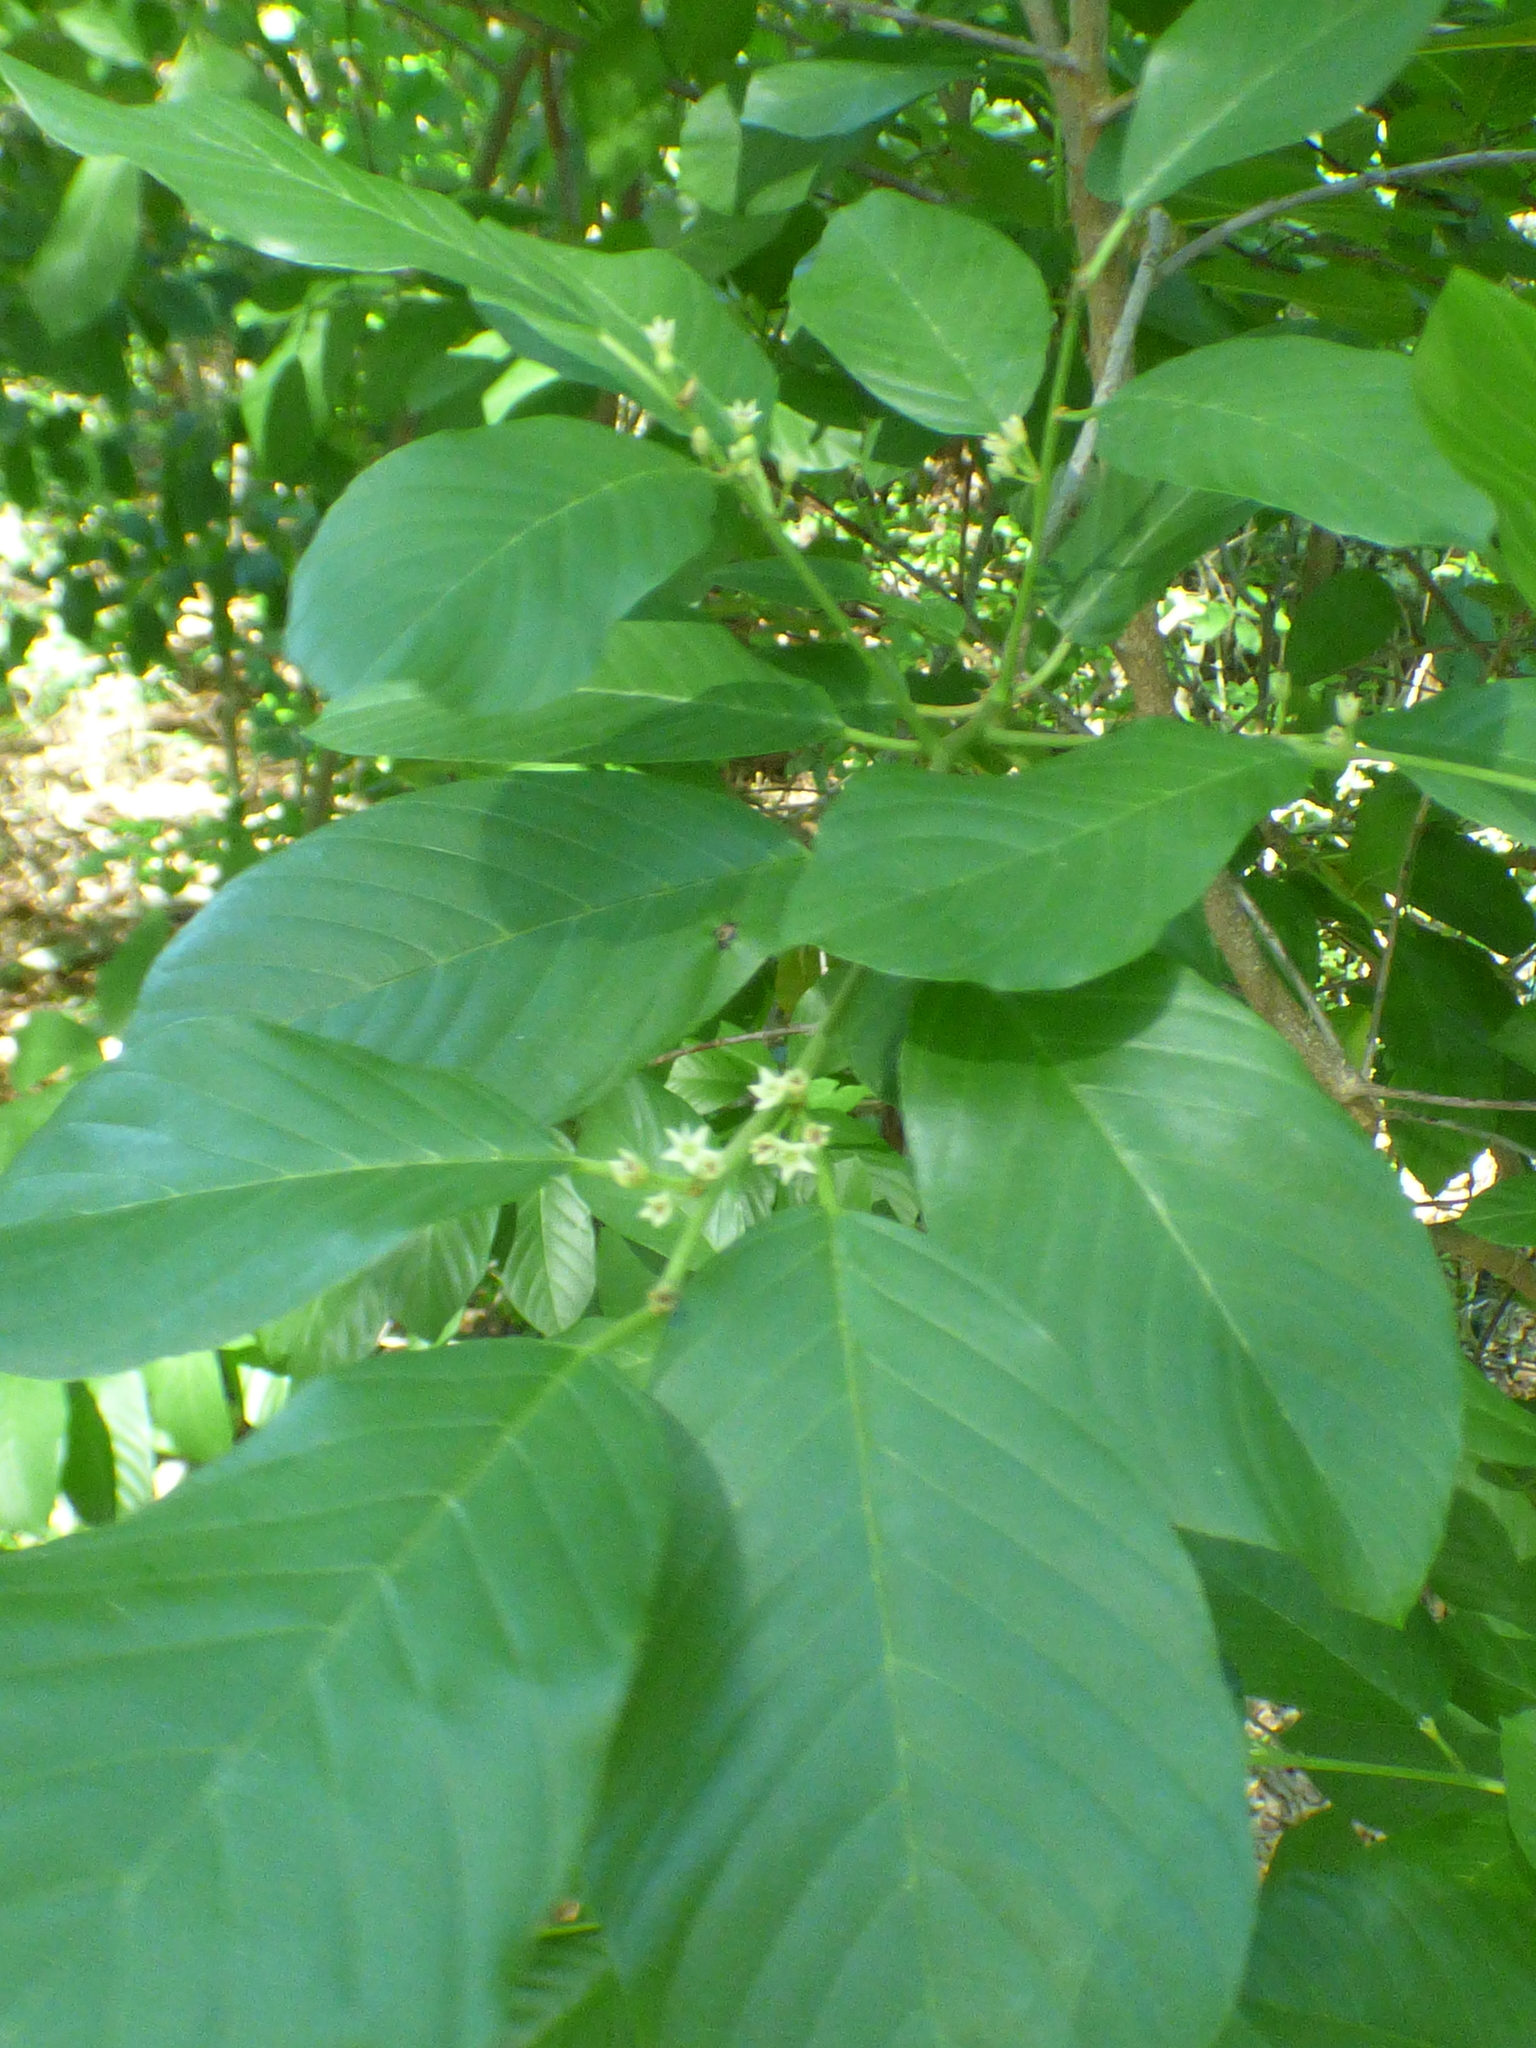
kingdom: Plantae
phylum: Tracheophyta
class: Magnoliopsida
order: Rosales
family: Rhamnaceae
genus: Frangula
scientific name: Frangula caroliniana
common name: Carolina buckthorn
